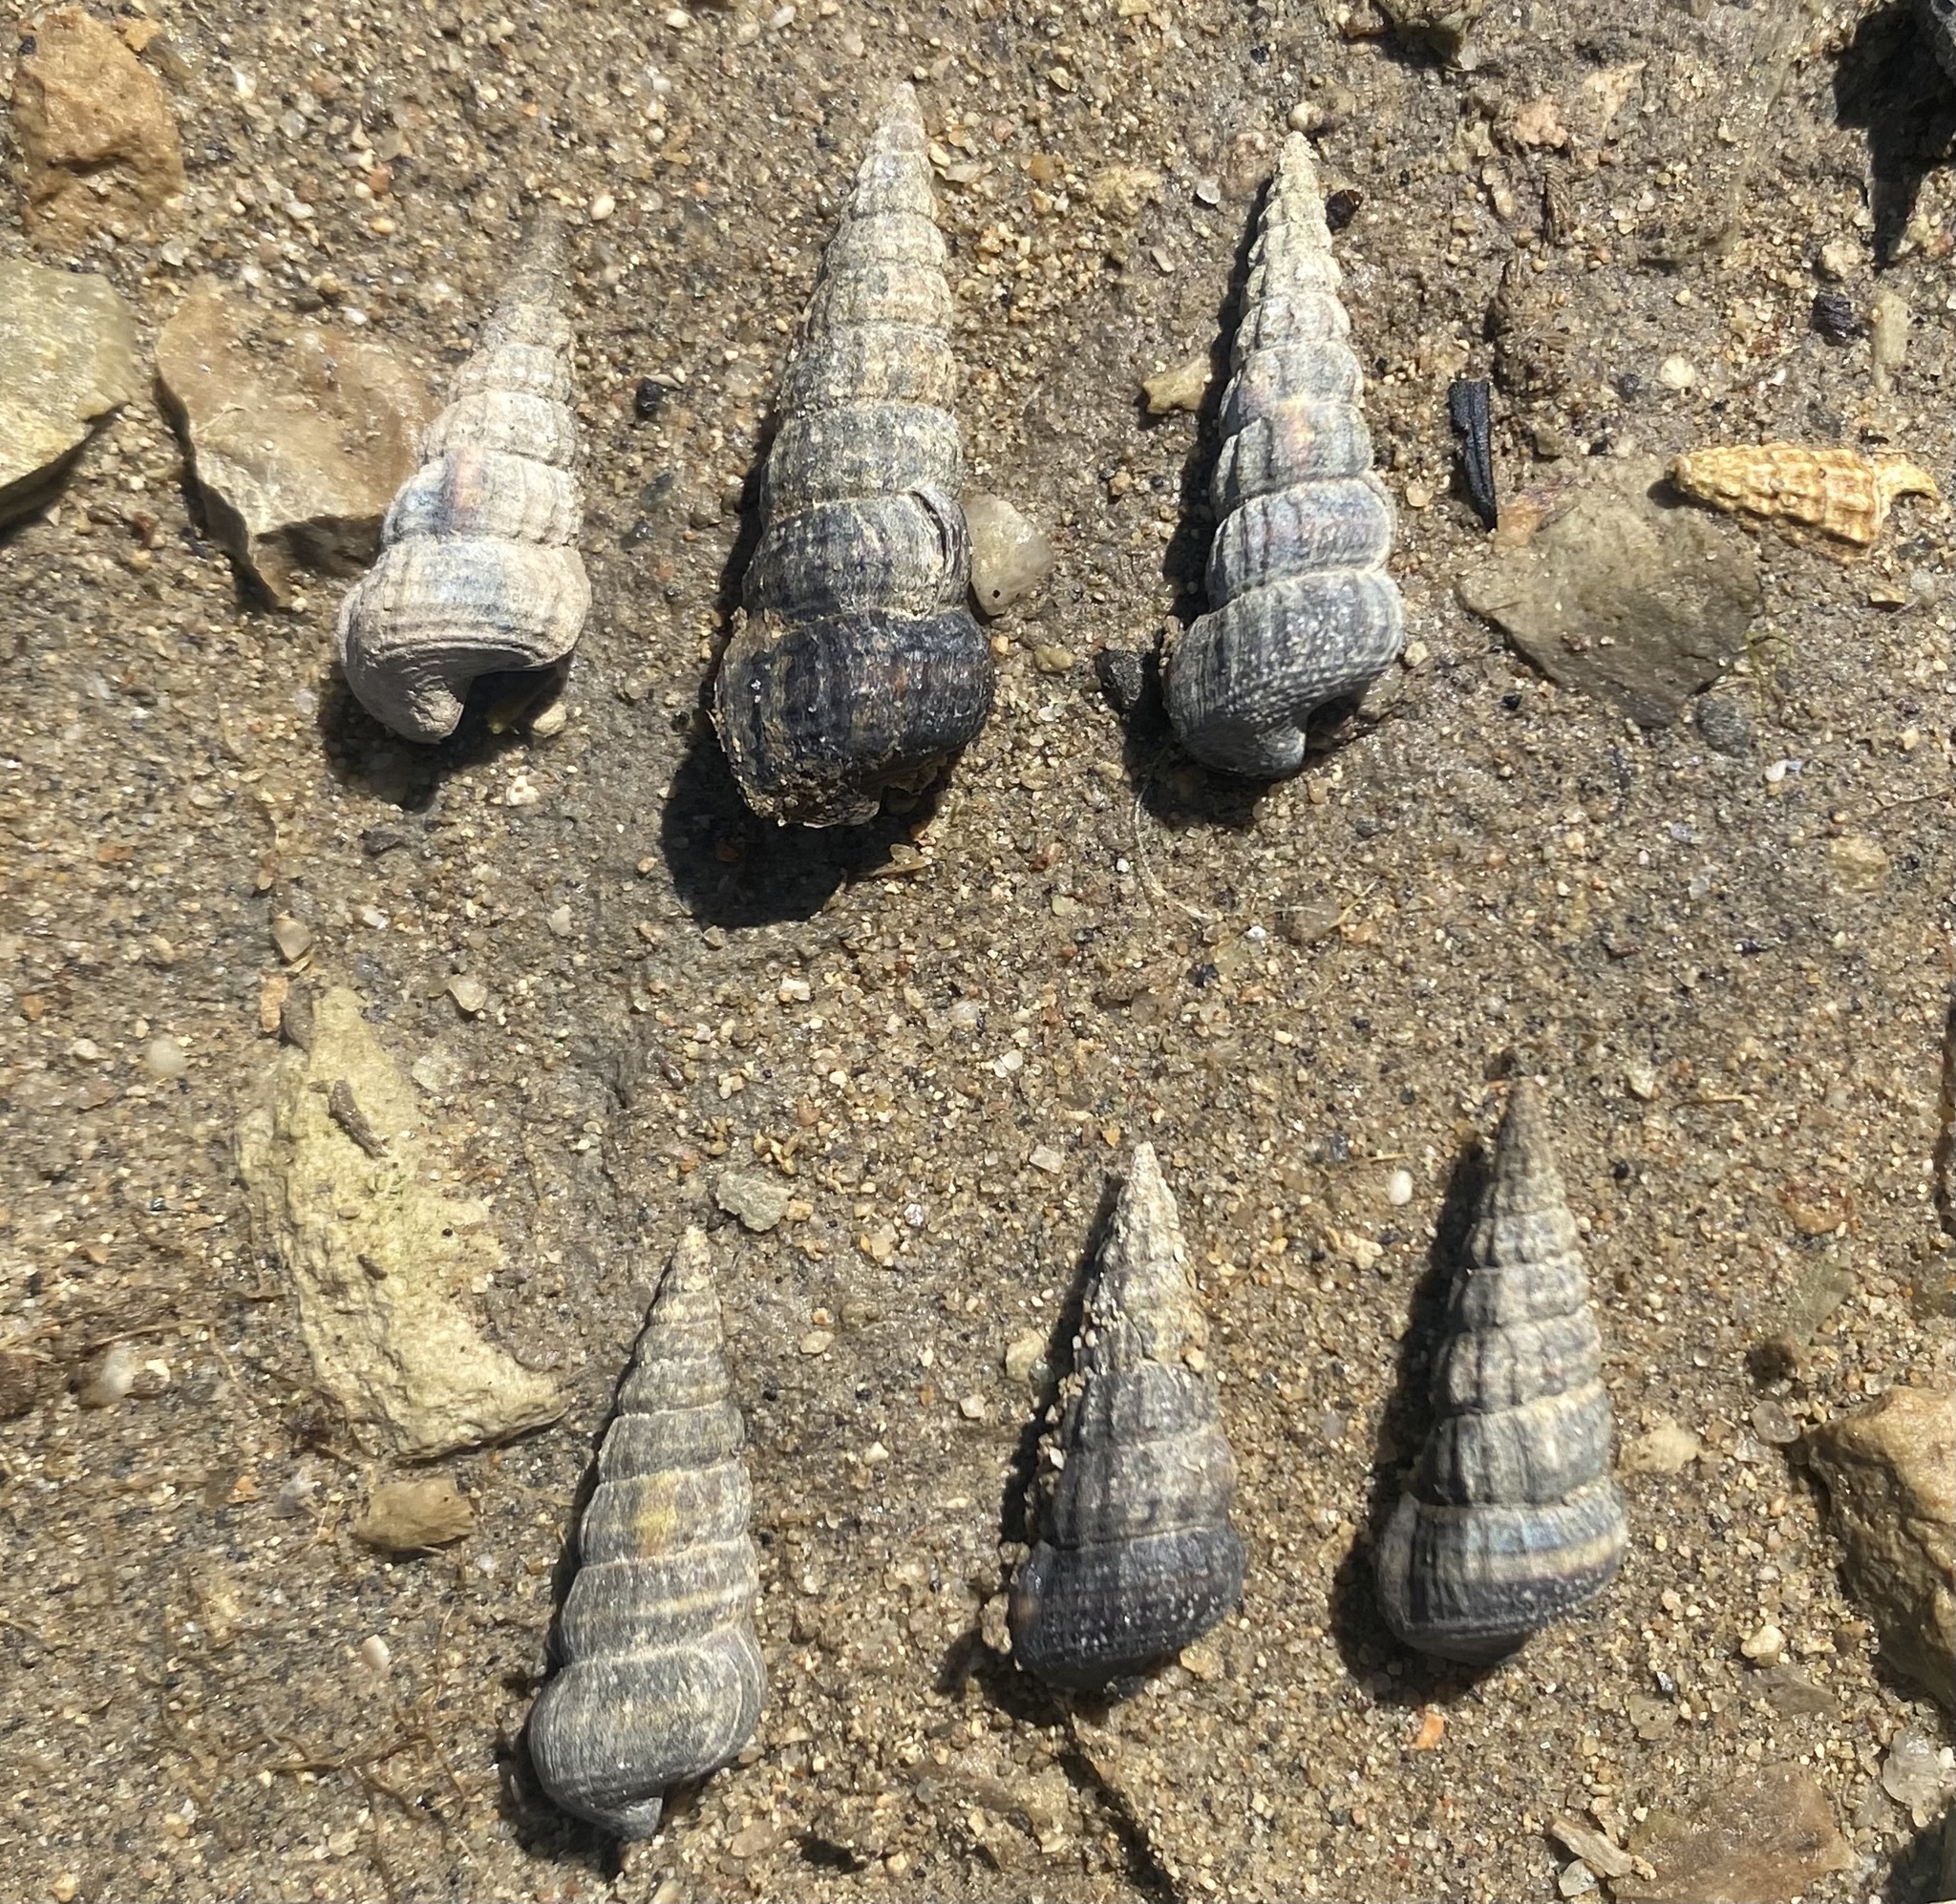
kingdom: Animalia
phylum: Mollusca
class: Gastropoda
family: Potamididae
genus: Cerithideopsis
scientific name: Cerithideopsis californica
